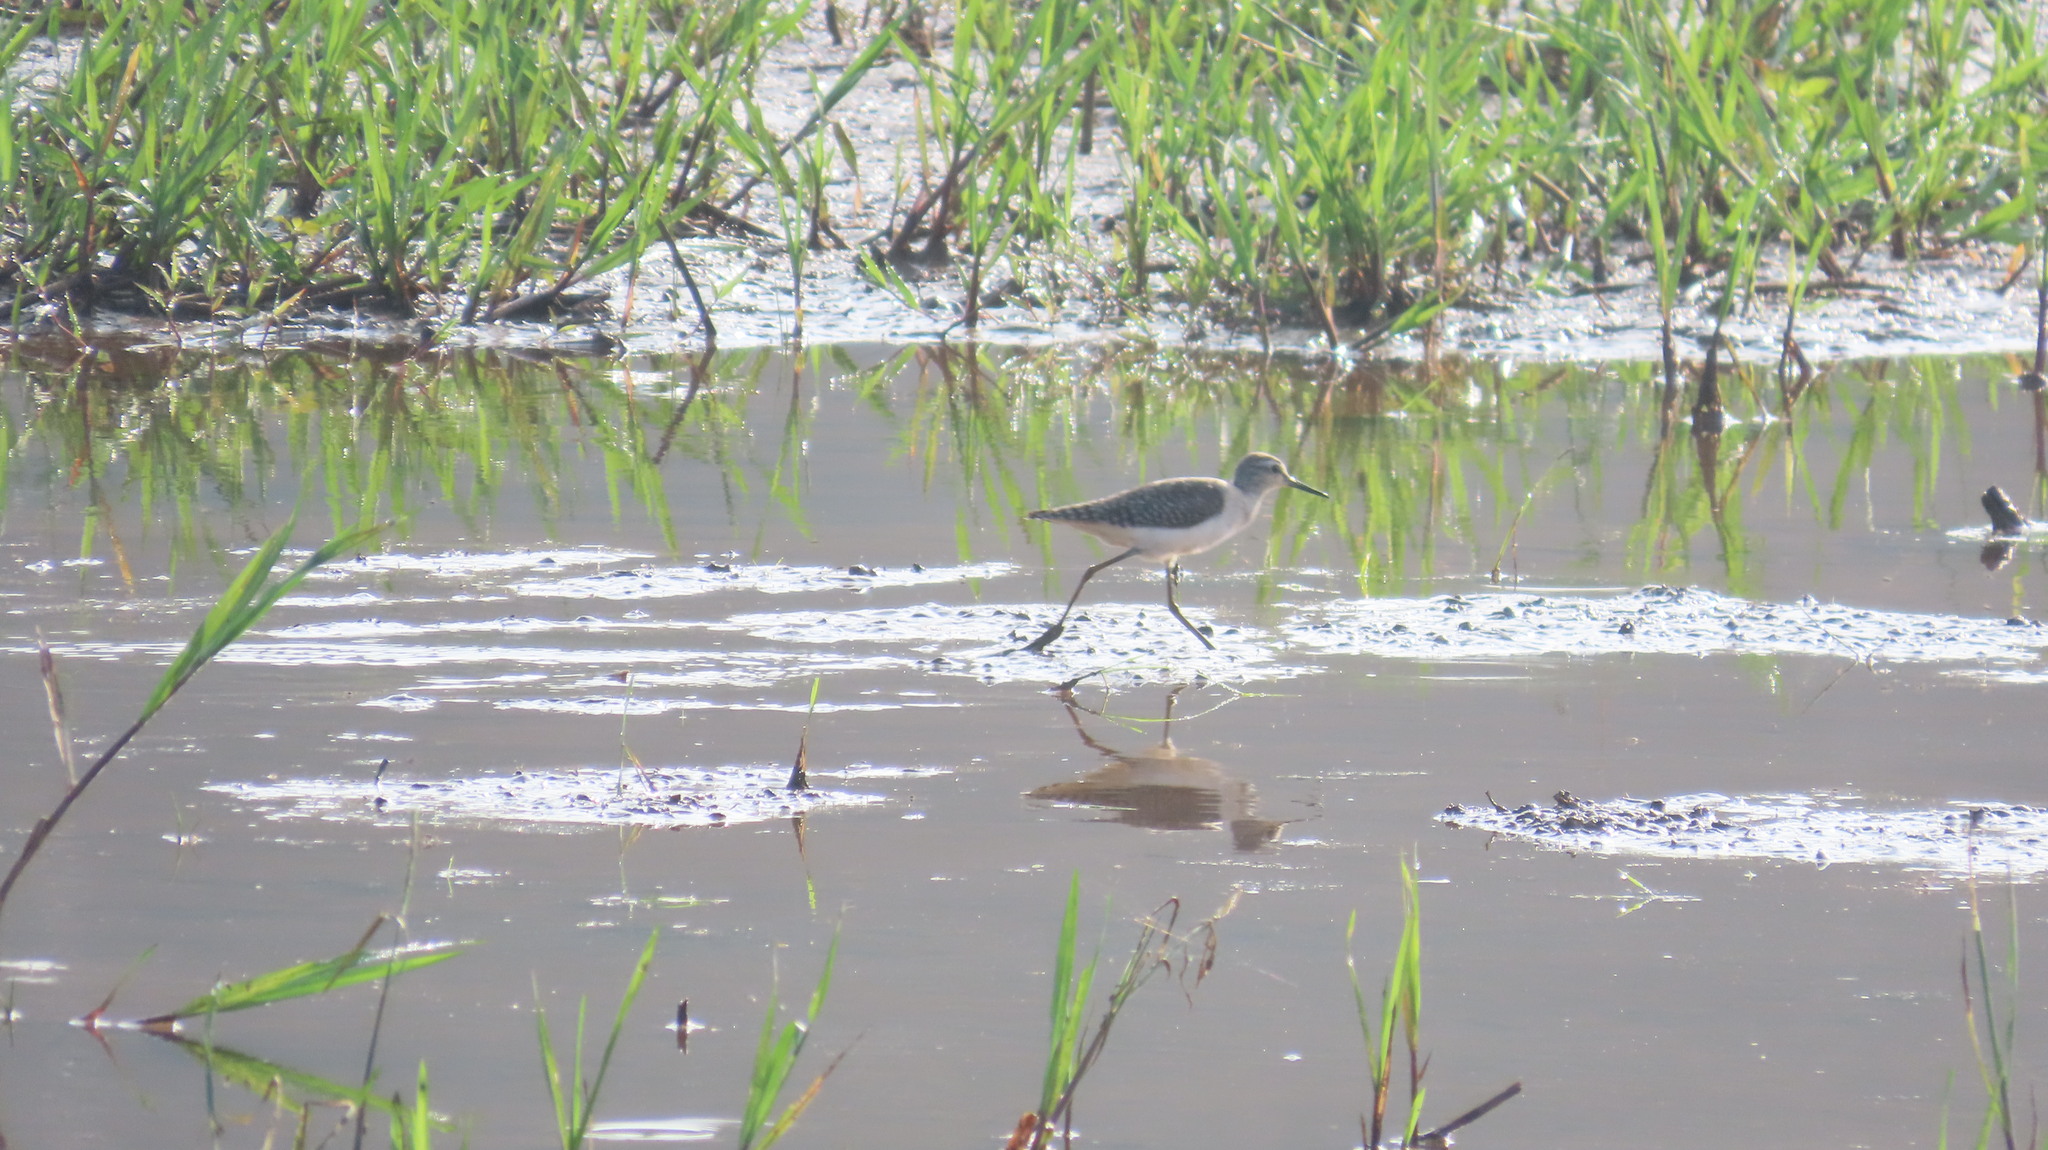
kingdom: Animalia
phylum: Chordata
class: Aves
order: Charadriiformes
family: Scolopacidae
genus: Tringa
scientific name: Tringa glareola
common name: Wood sandpiper
